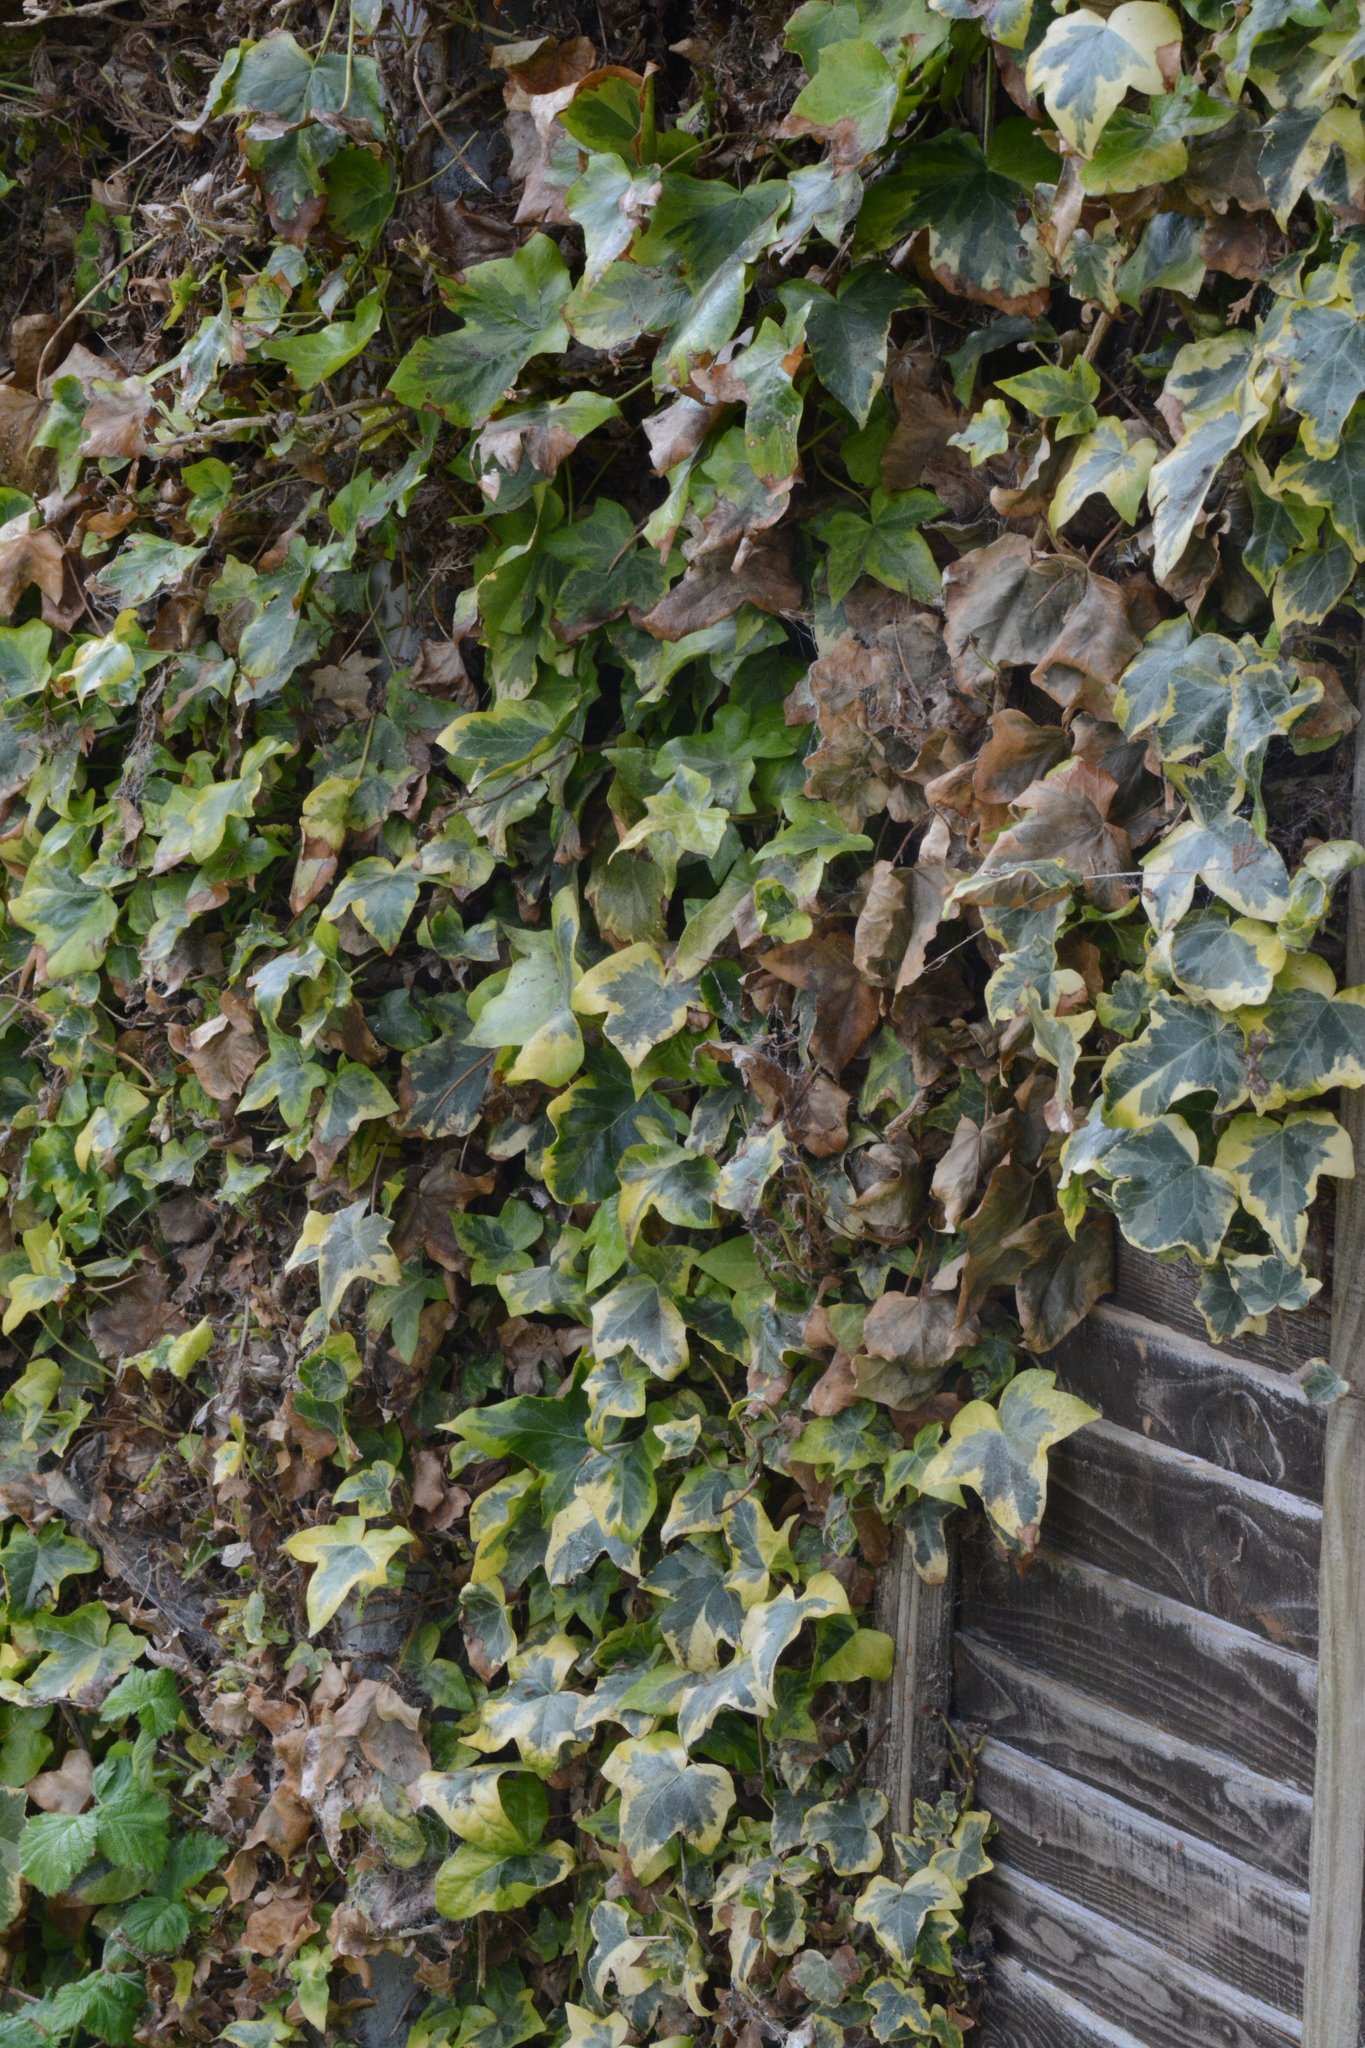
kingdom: Plantae
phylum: Tracheophyta
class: Magnoliopsida
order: Apiales
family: Araliaceae
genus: Hedera
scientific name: Hedera helix
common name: Ivy
